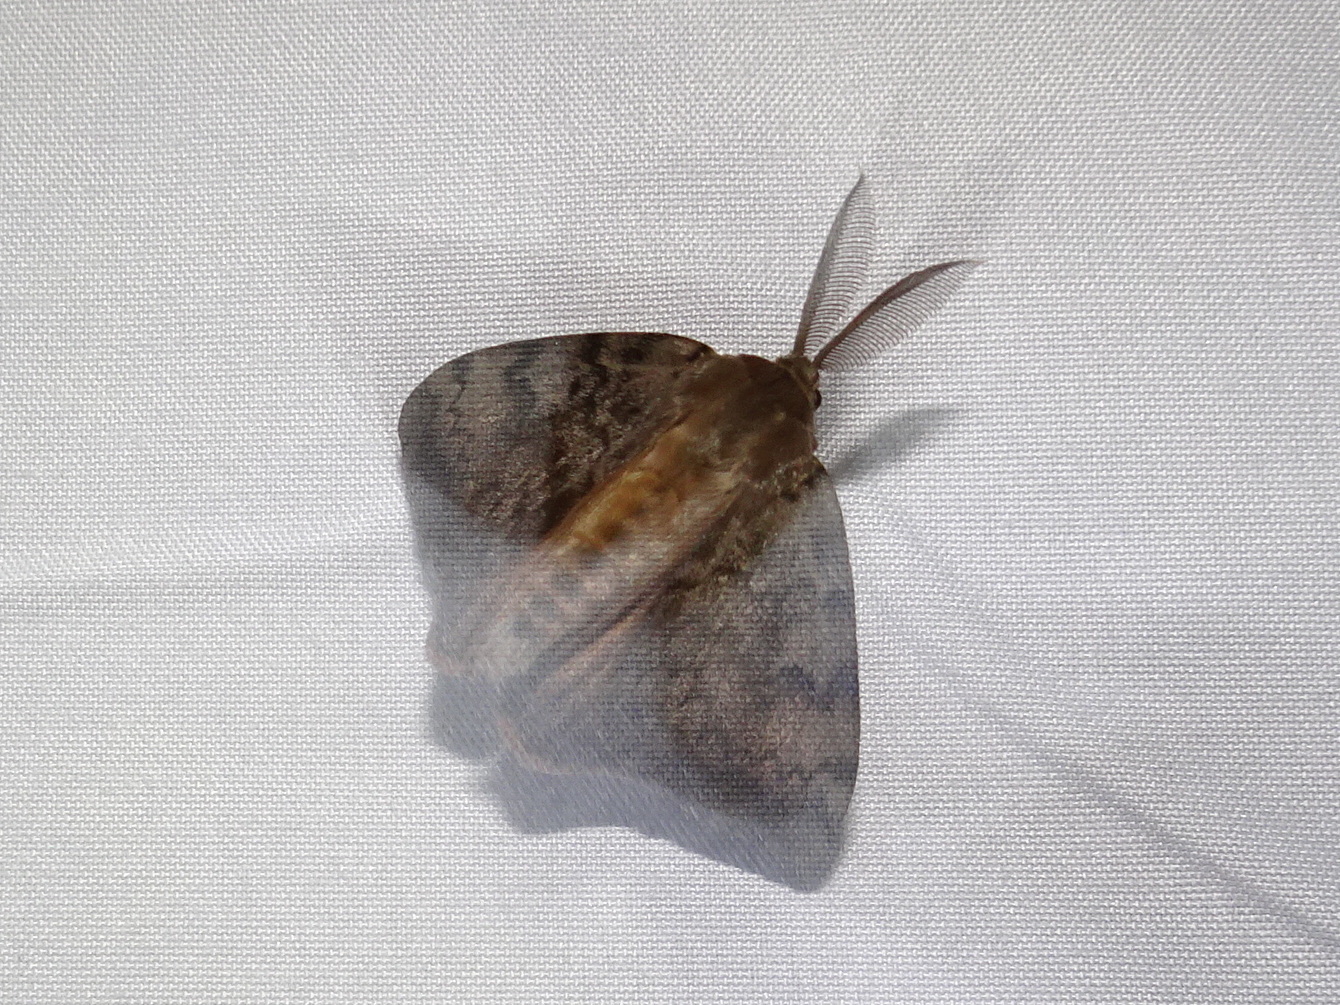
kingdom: Animalia
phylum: Arthropoda
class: Insecta
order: Lepidoptera
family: Erebidae
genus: Lymantria
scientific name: Lymantria dispar
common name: Gypsy moth
